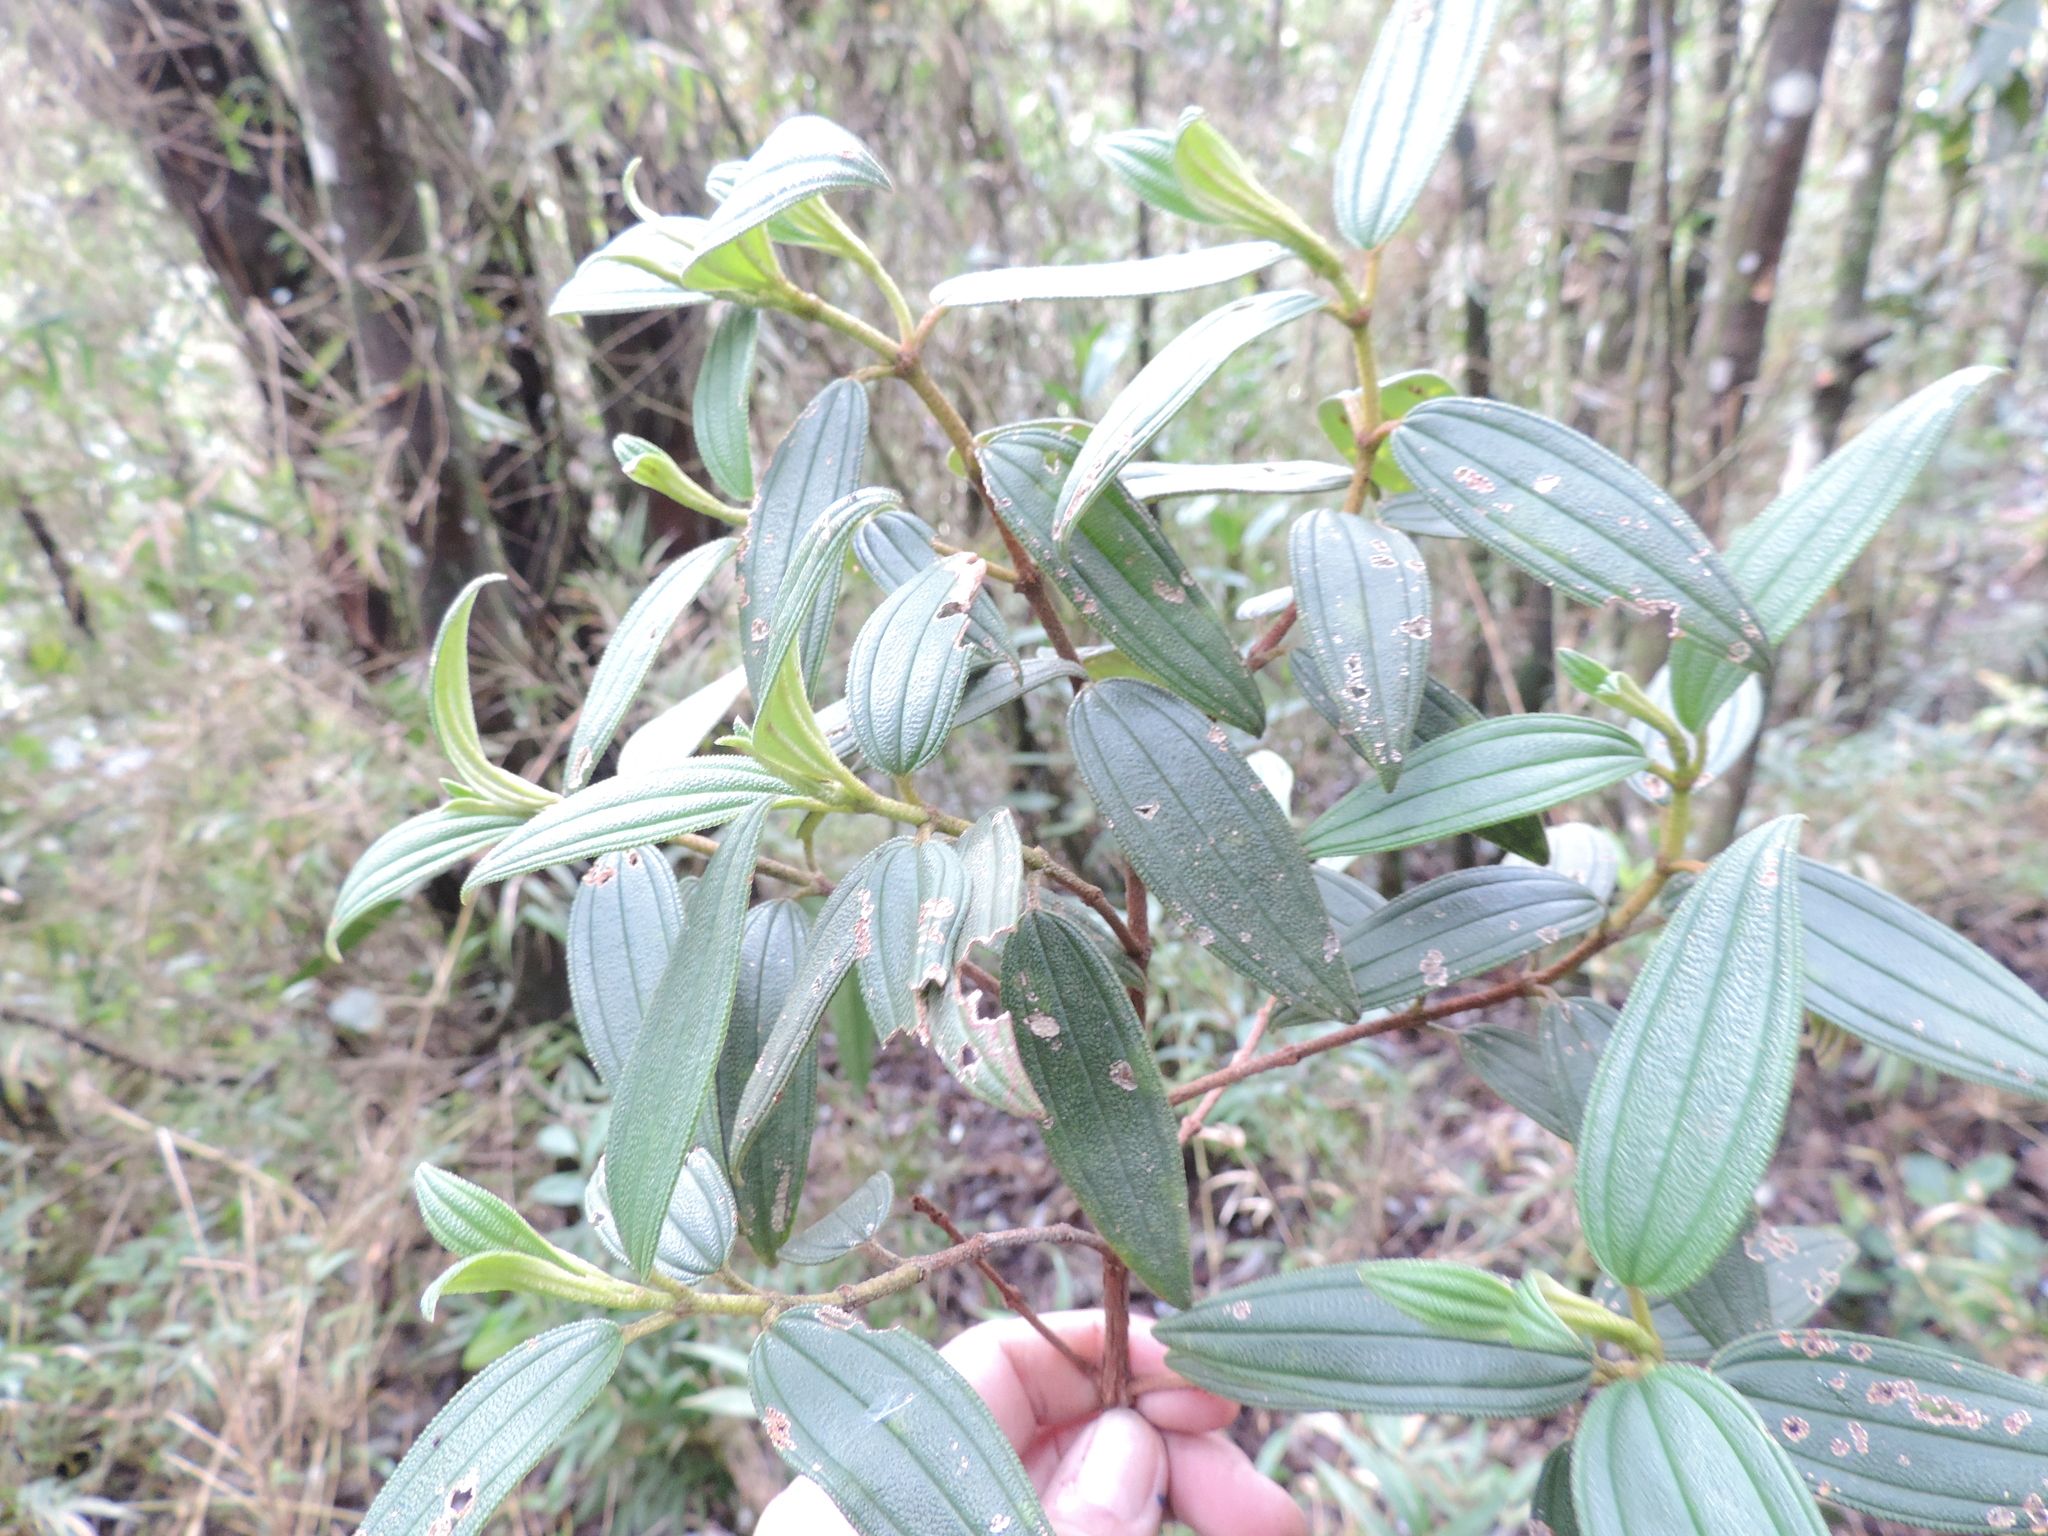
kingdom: Plantae
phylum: Tracheophyta
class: Magnoliopsida
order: Myrtales
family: Melastomataceae
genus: Andesanthus
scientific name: Andesanthus lepidotus
